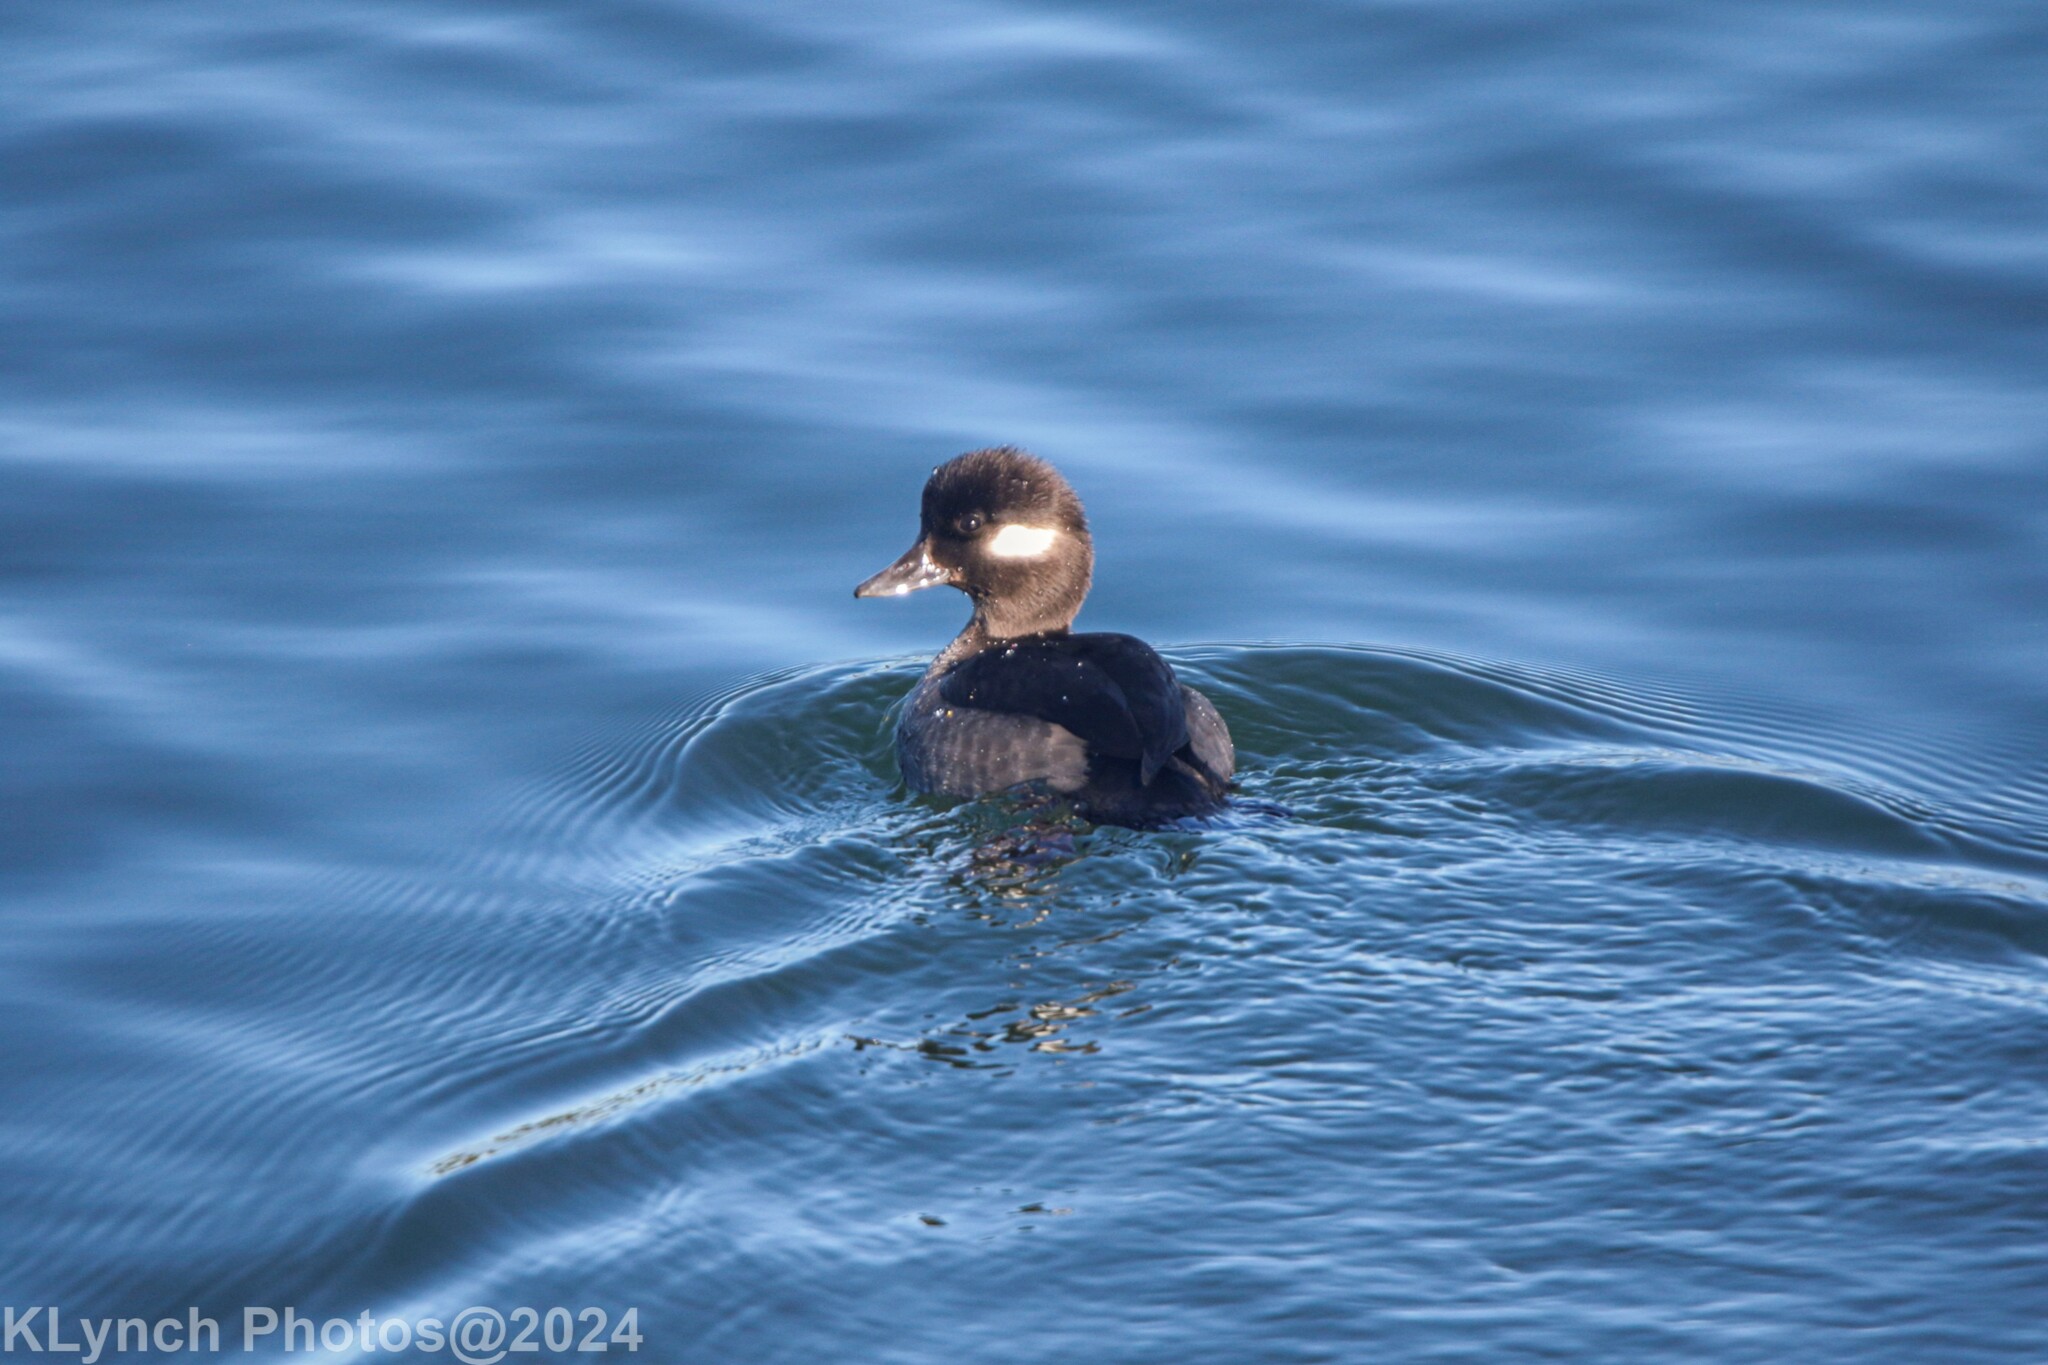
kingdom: Animalia
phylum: Chordata
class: Aves
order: Anseriformes
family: Anatidae
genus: Bucephala
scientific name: Bucephala albeola
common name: Bufflehead
